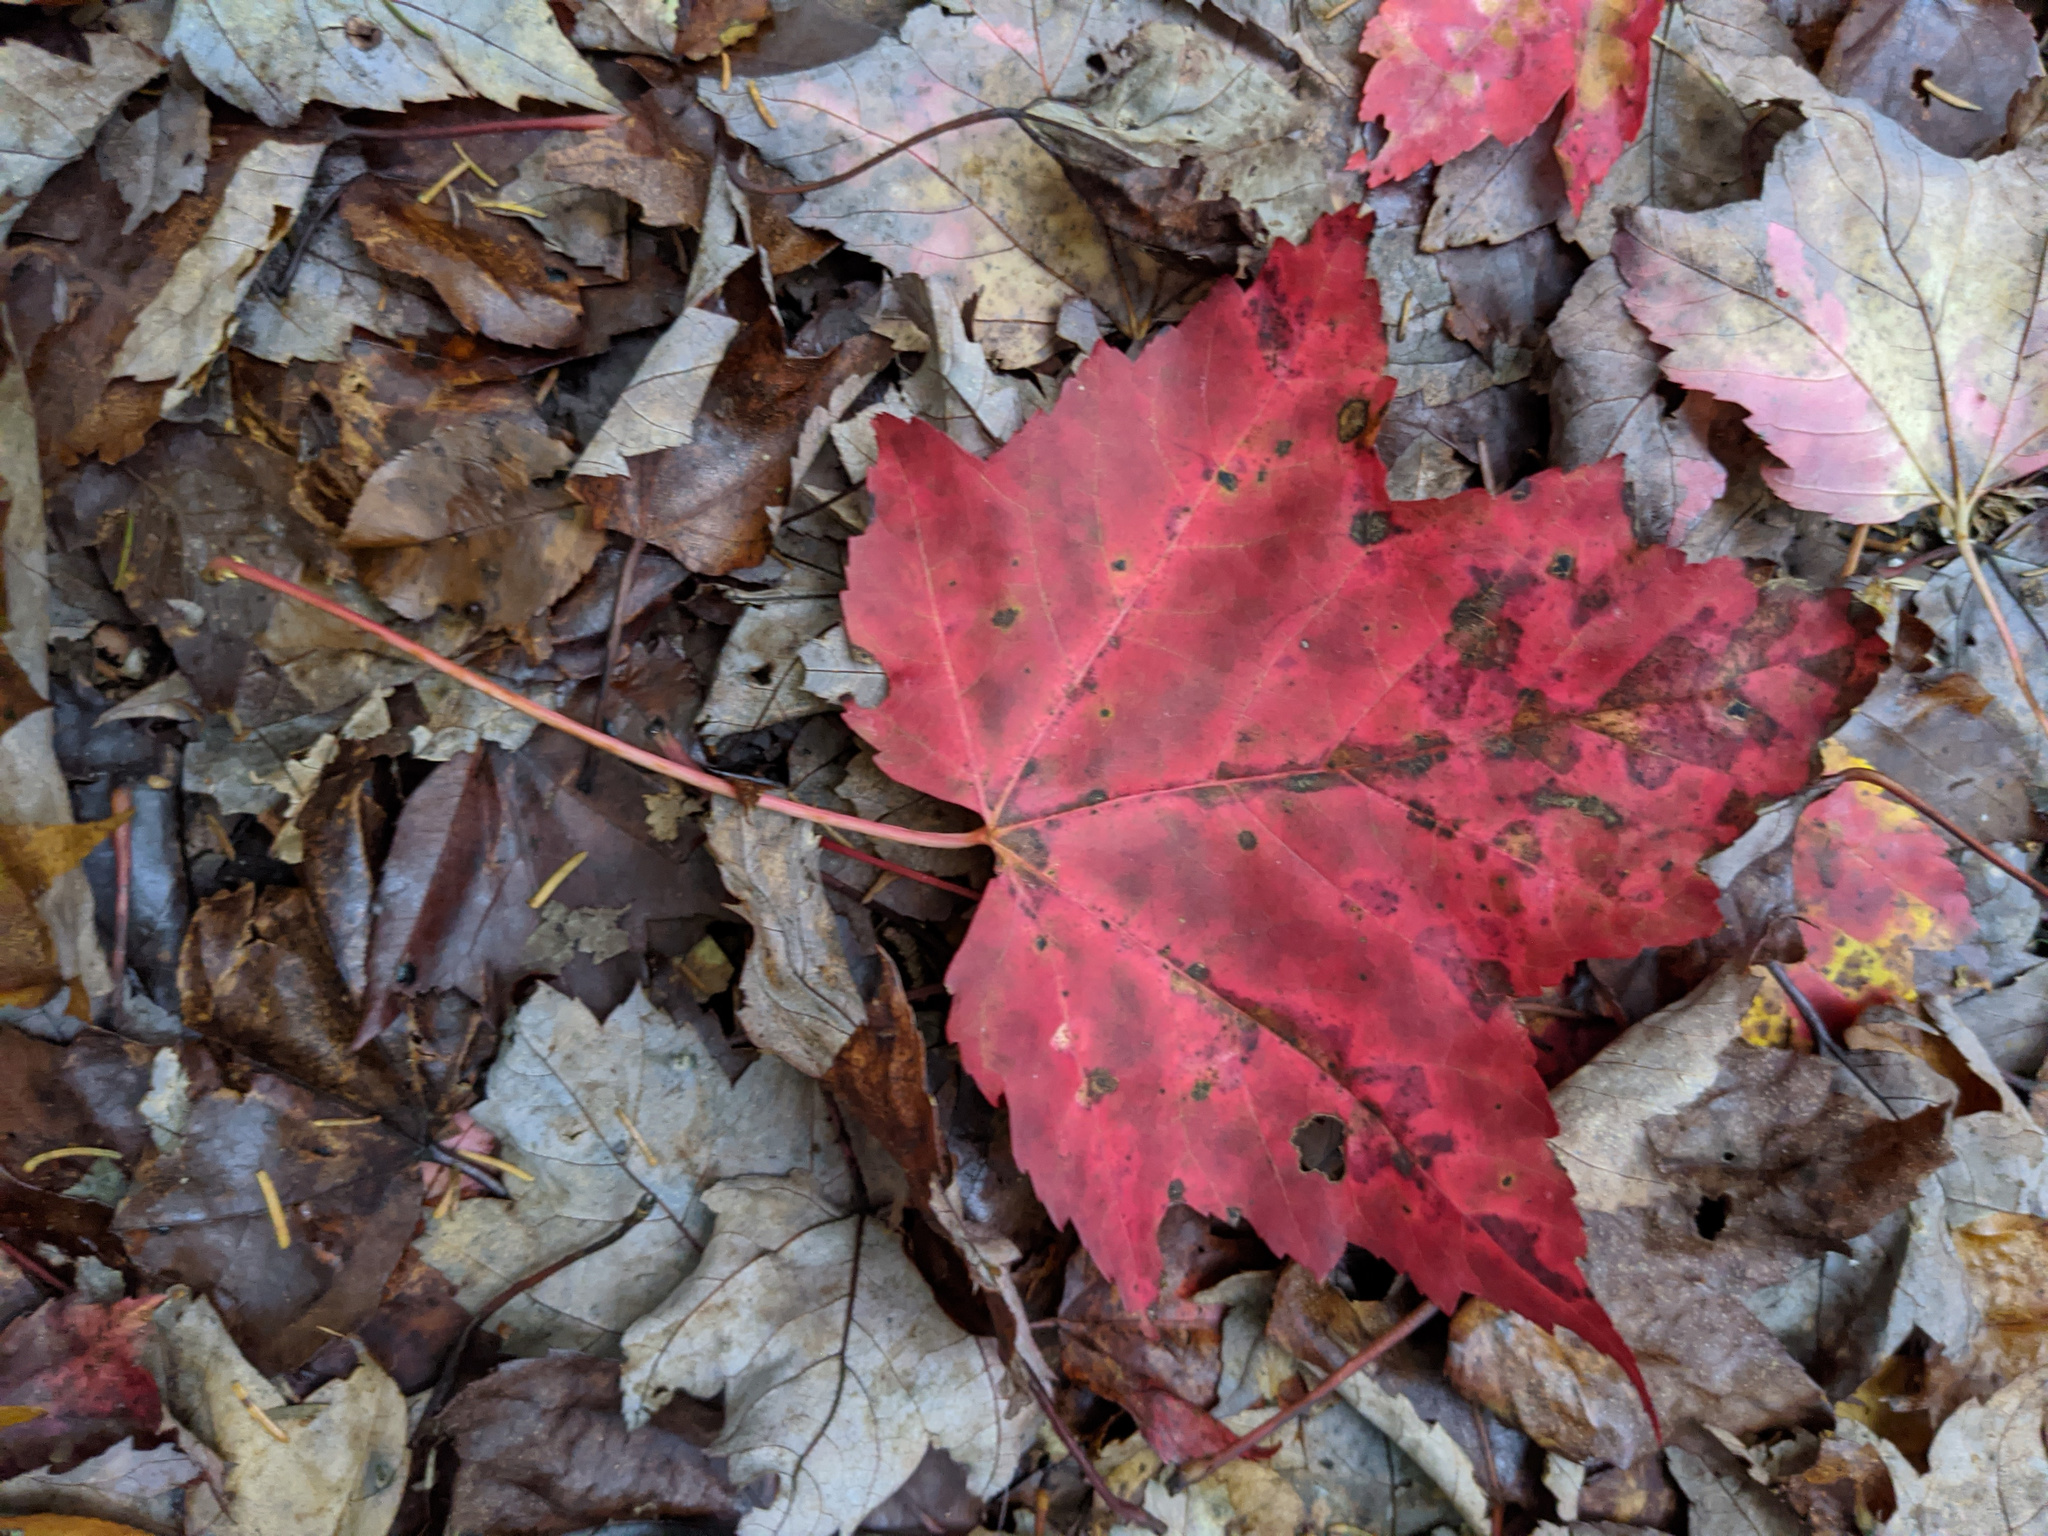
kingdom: Plantae
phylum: Tracheophyta
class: Magnoliopsida
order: Sapindales
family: Sapindaceae
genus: Acer
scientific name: Acer rubrum
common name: Red maple
